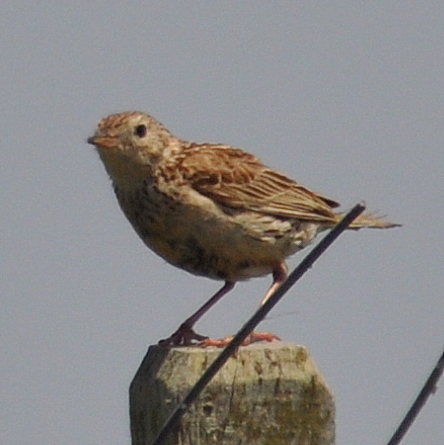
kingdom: Animalia
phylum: Chordata
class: Aves
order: Passeriformes
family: Motacillidae
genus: Anthus
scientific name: Anthus hellmayri
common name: Hellmayr's pipit
